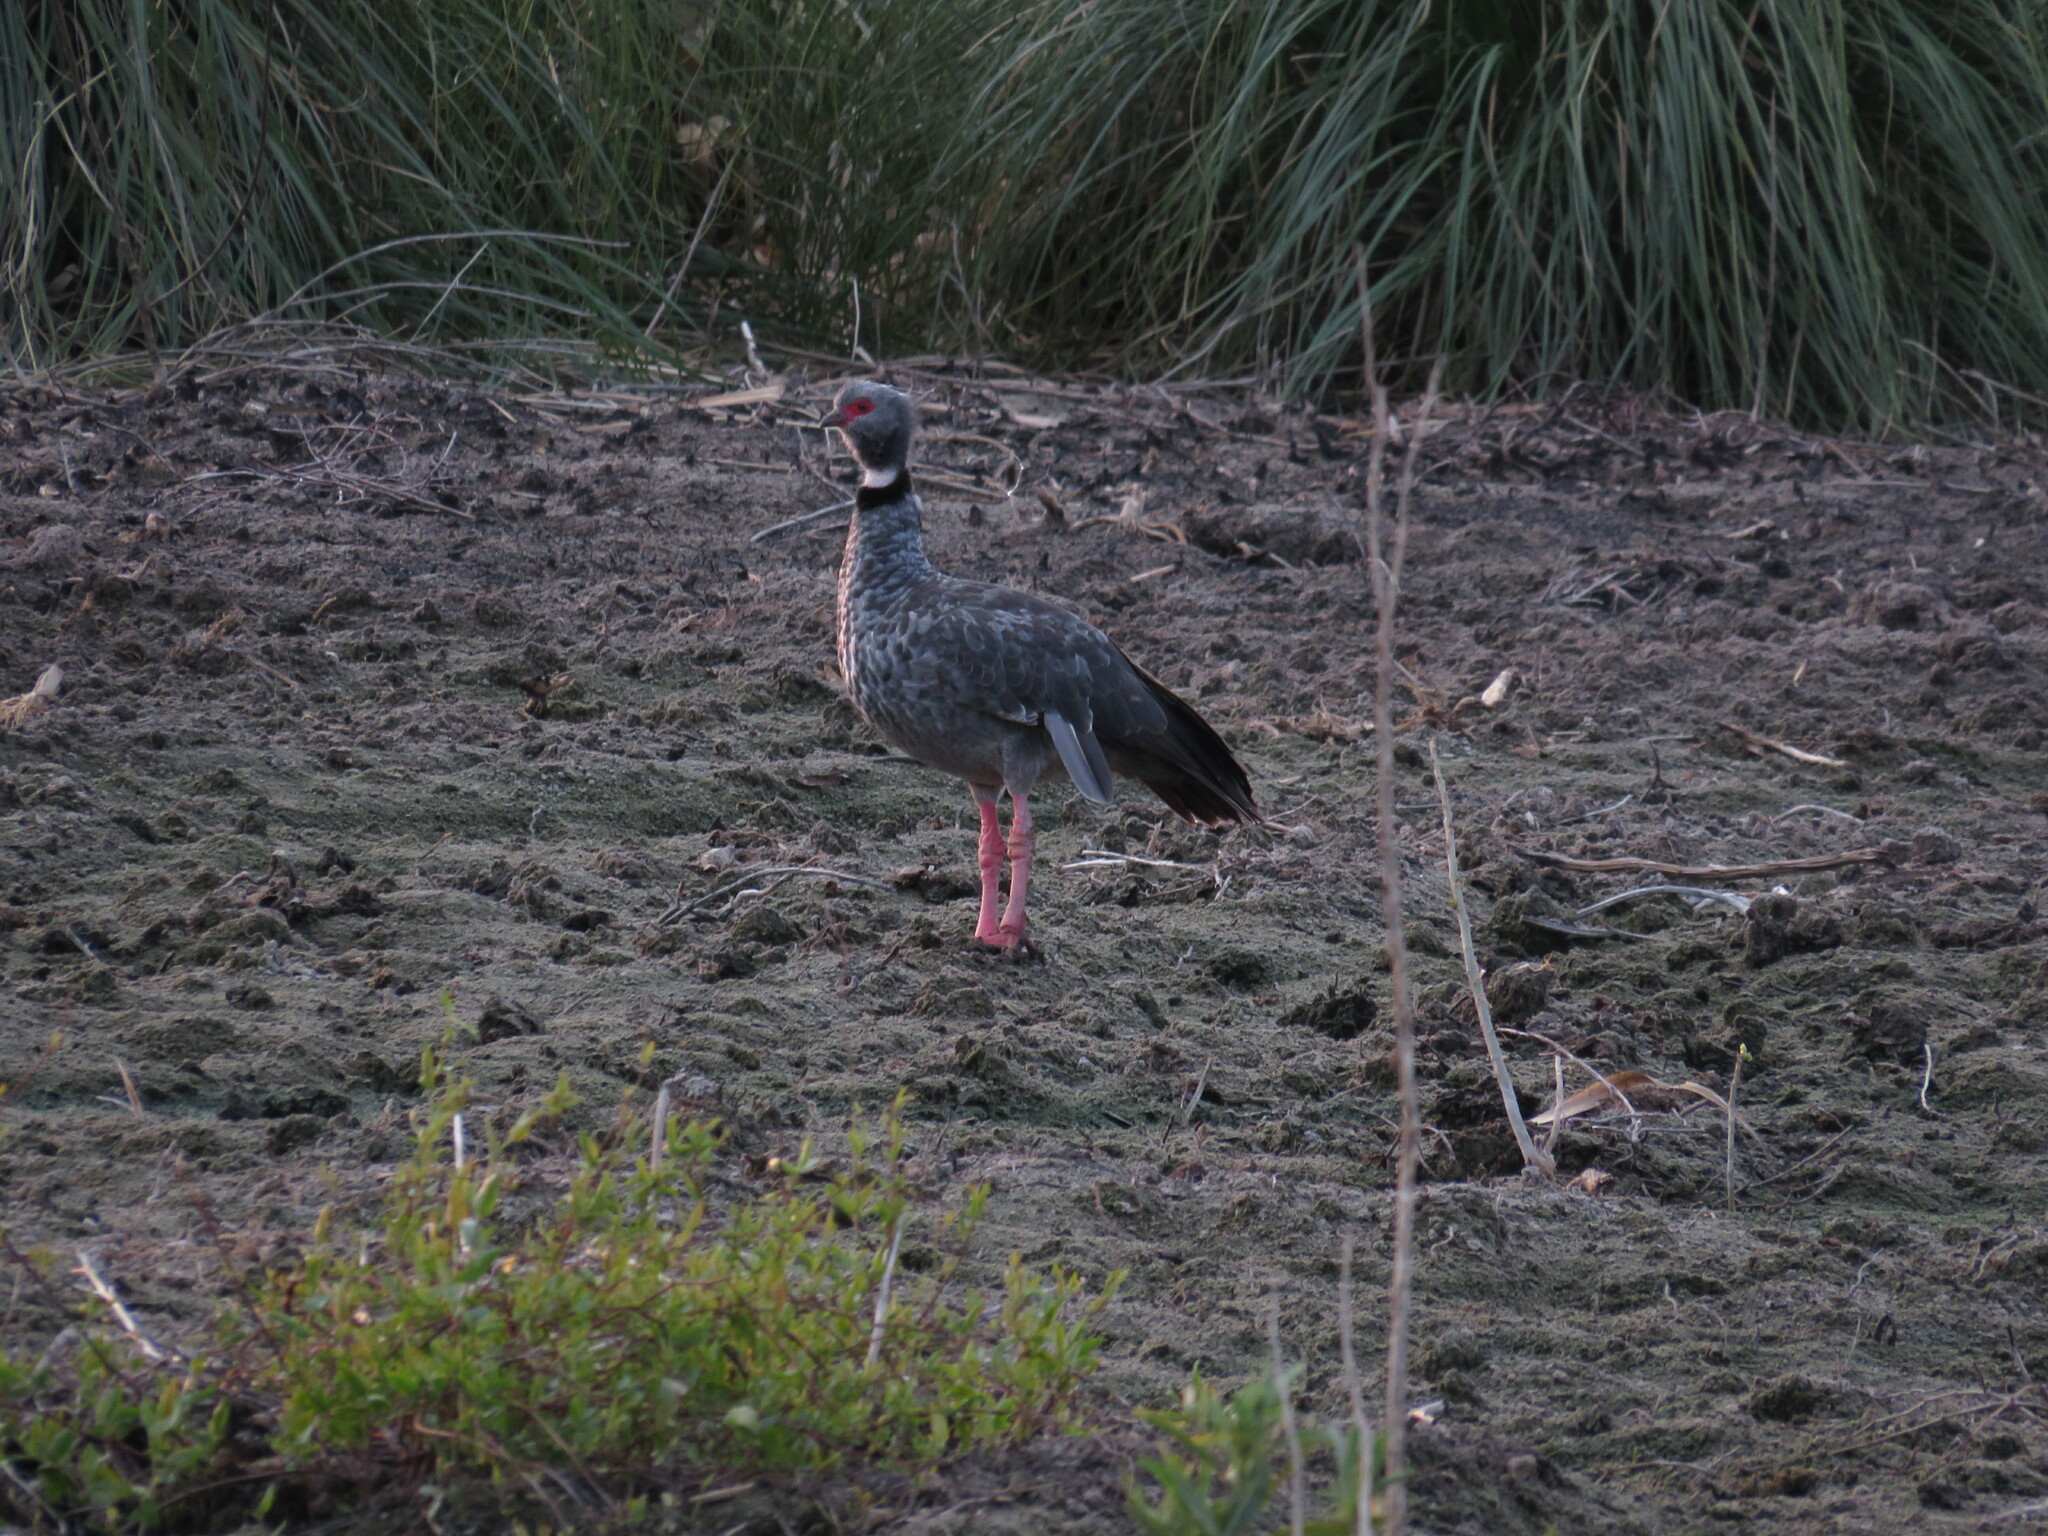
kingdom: Animalia
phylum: Chordata
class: Aves
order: Anseriformes
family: Anhimidae
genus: Chauna
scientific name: Chauna torquata
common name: Southern screamer
